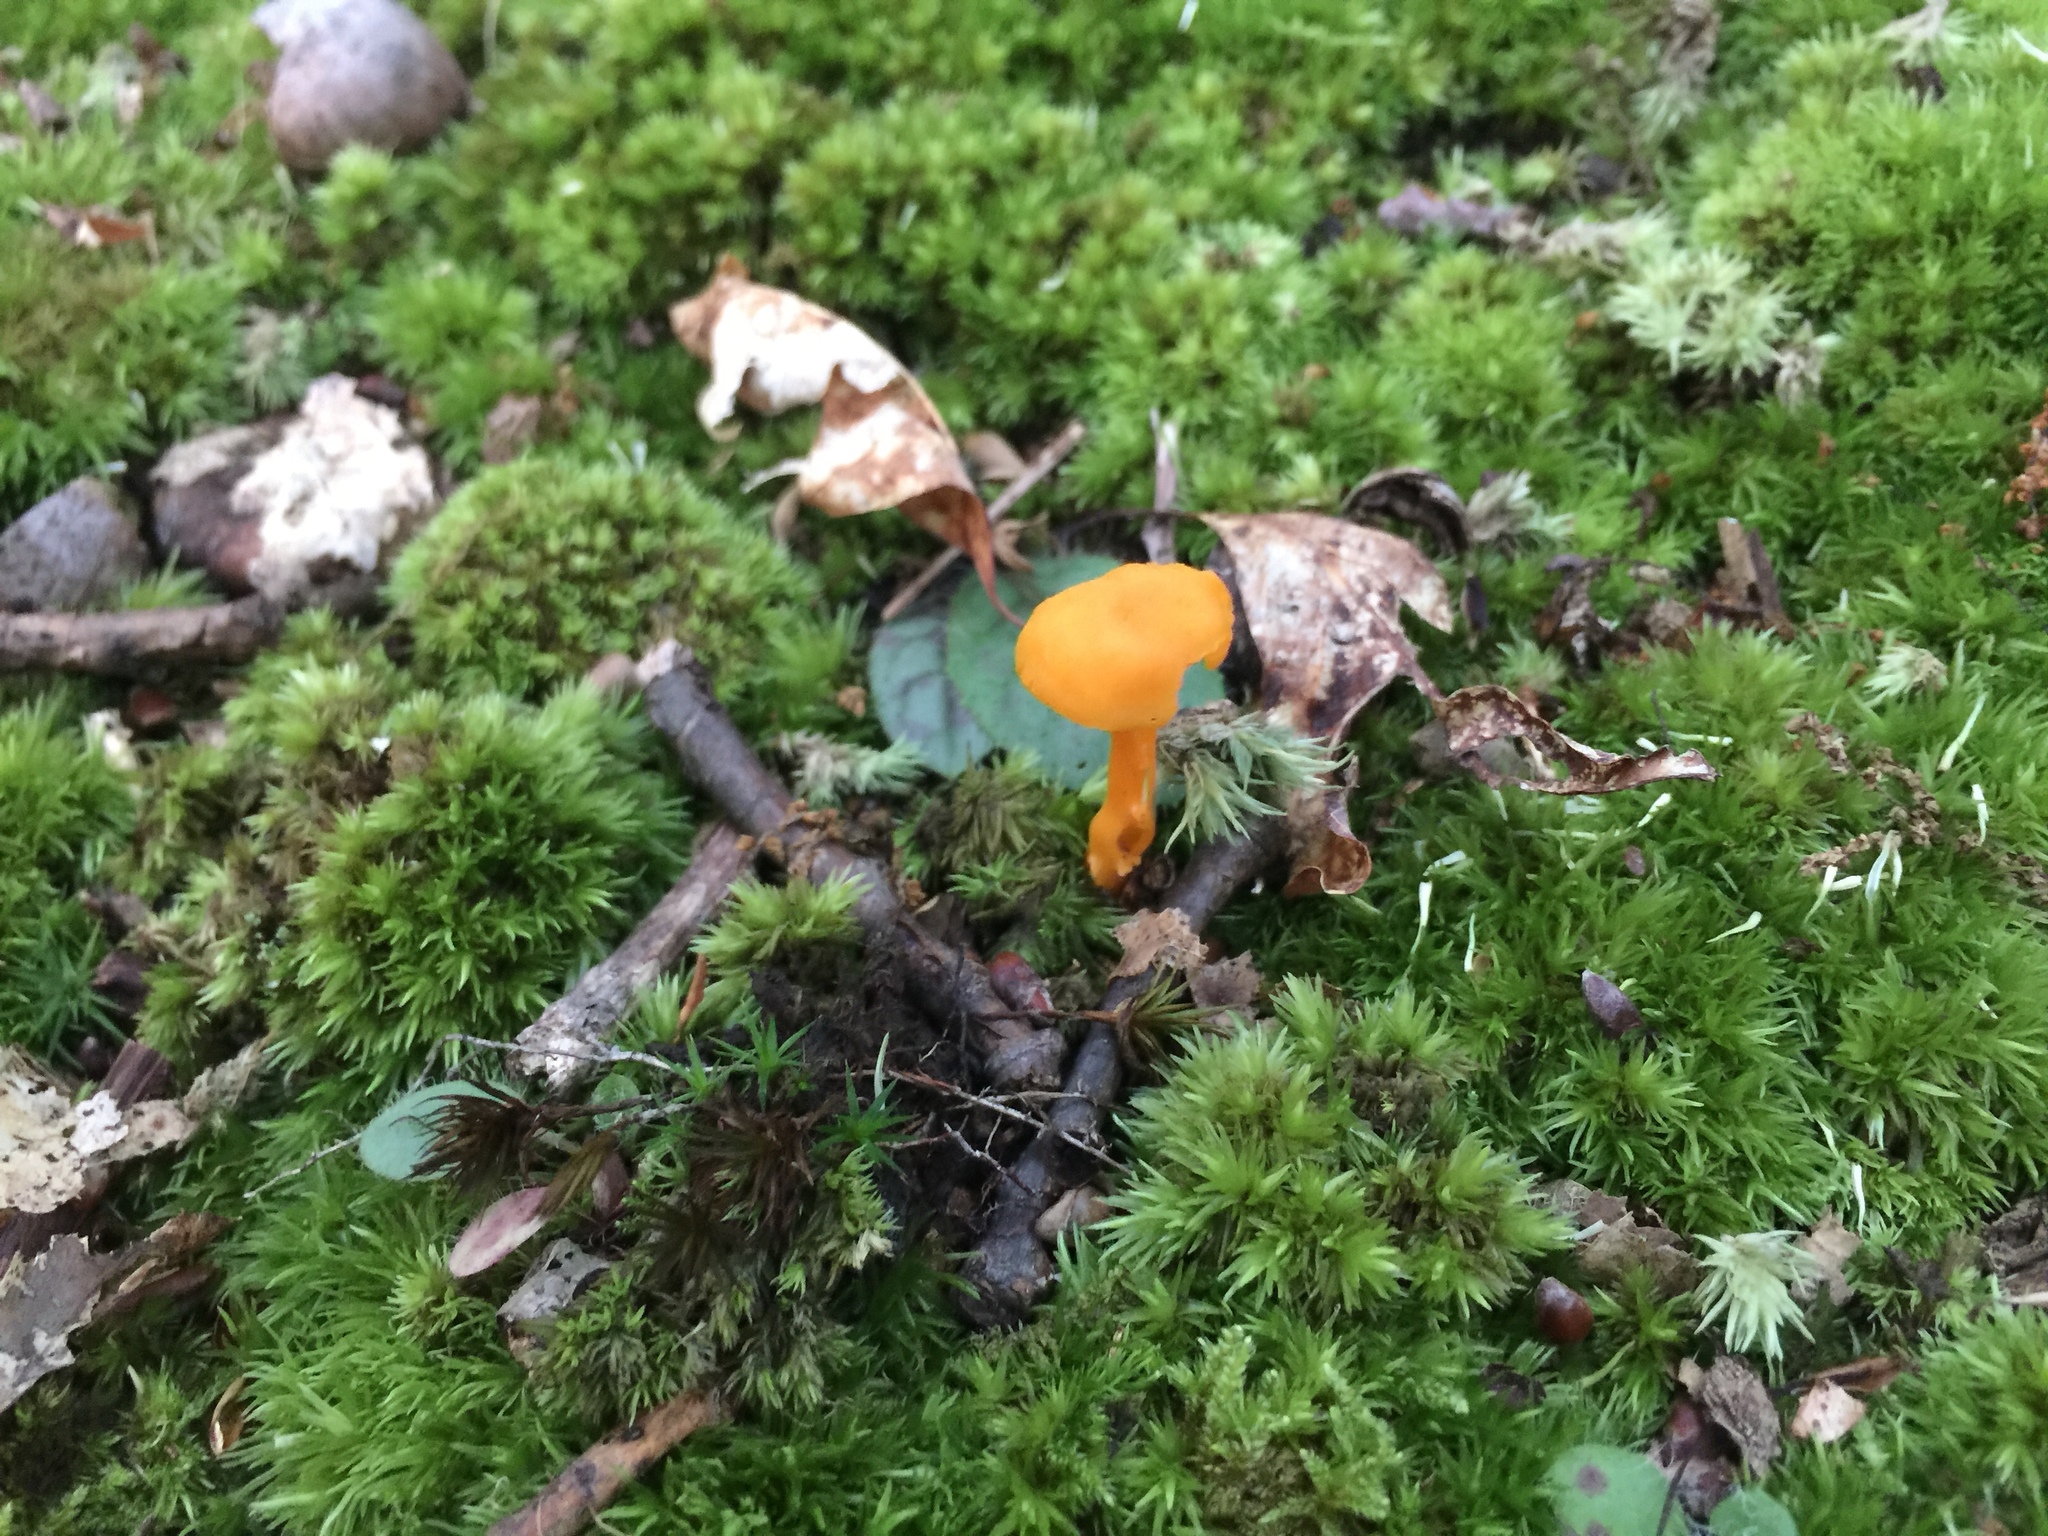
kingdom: Fungi
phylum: Basidiomycota
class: Agaricomycetes
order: Cantharellales
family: Hydnaceae
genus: Cantharellus
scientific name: Cantharellus minor
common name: Small chanterelle
